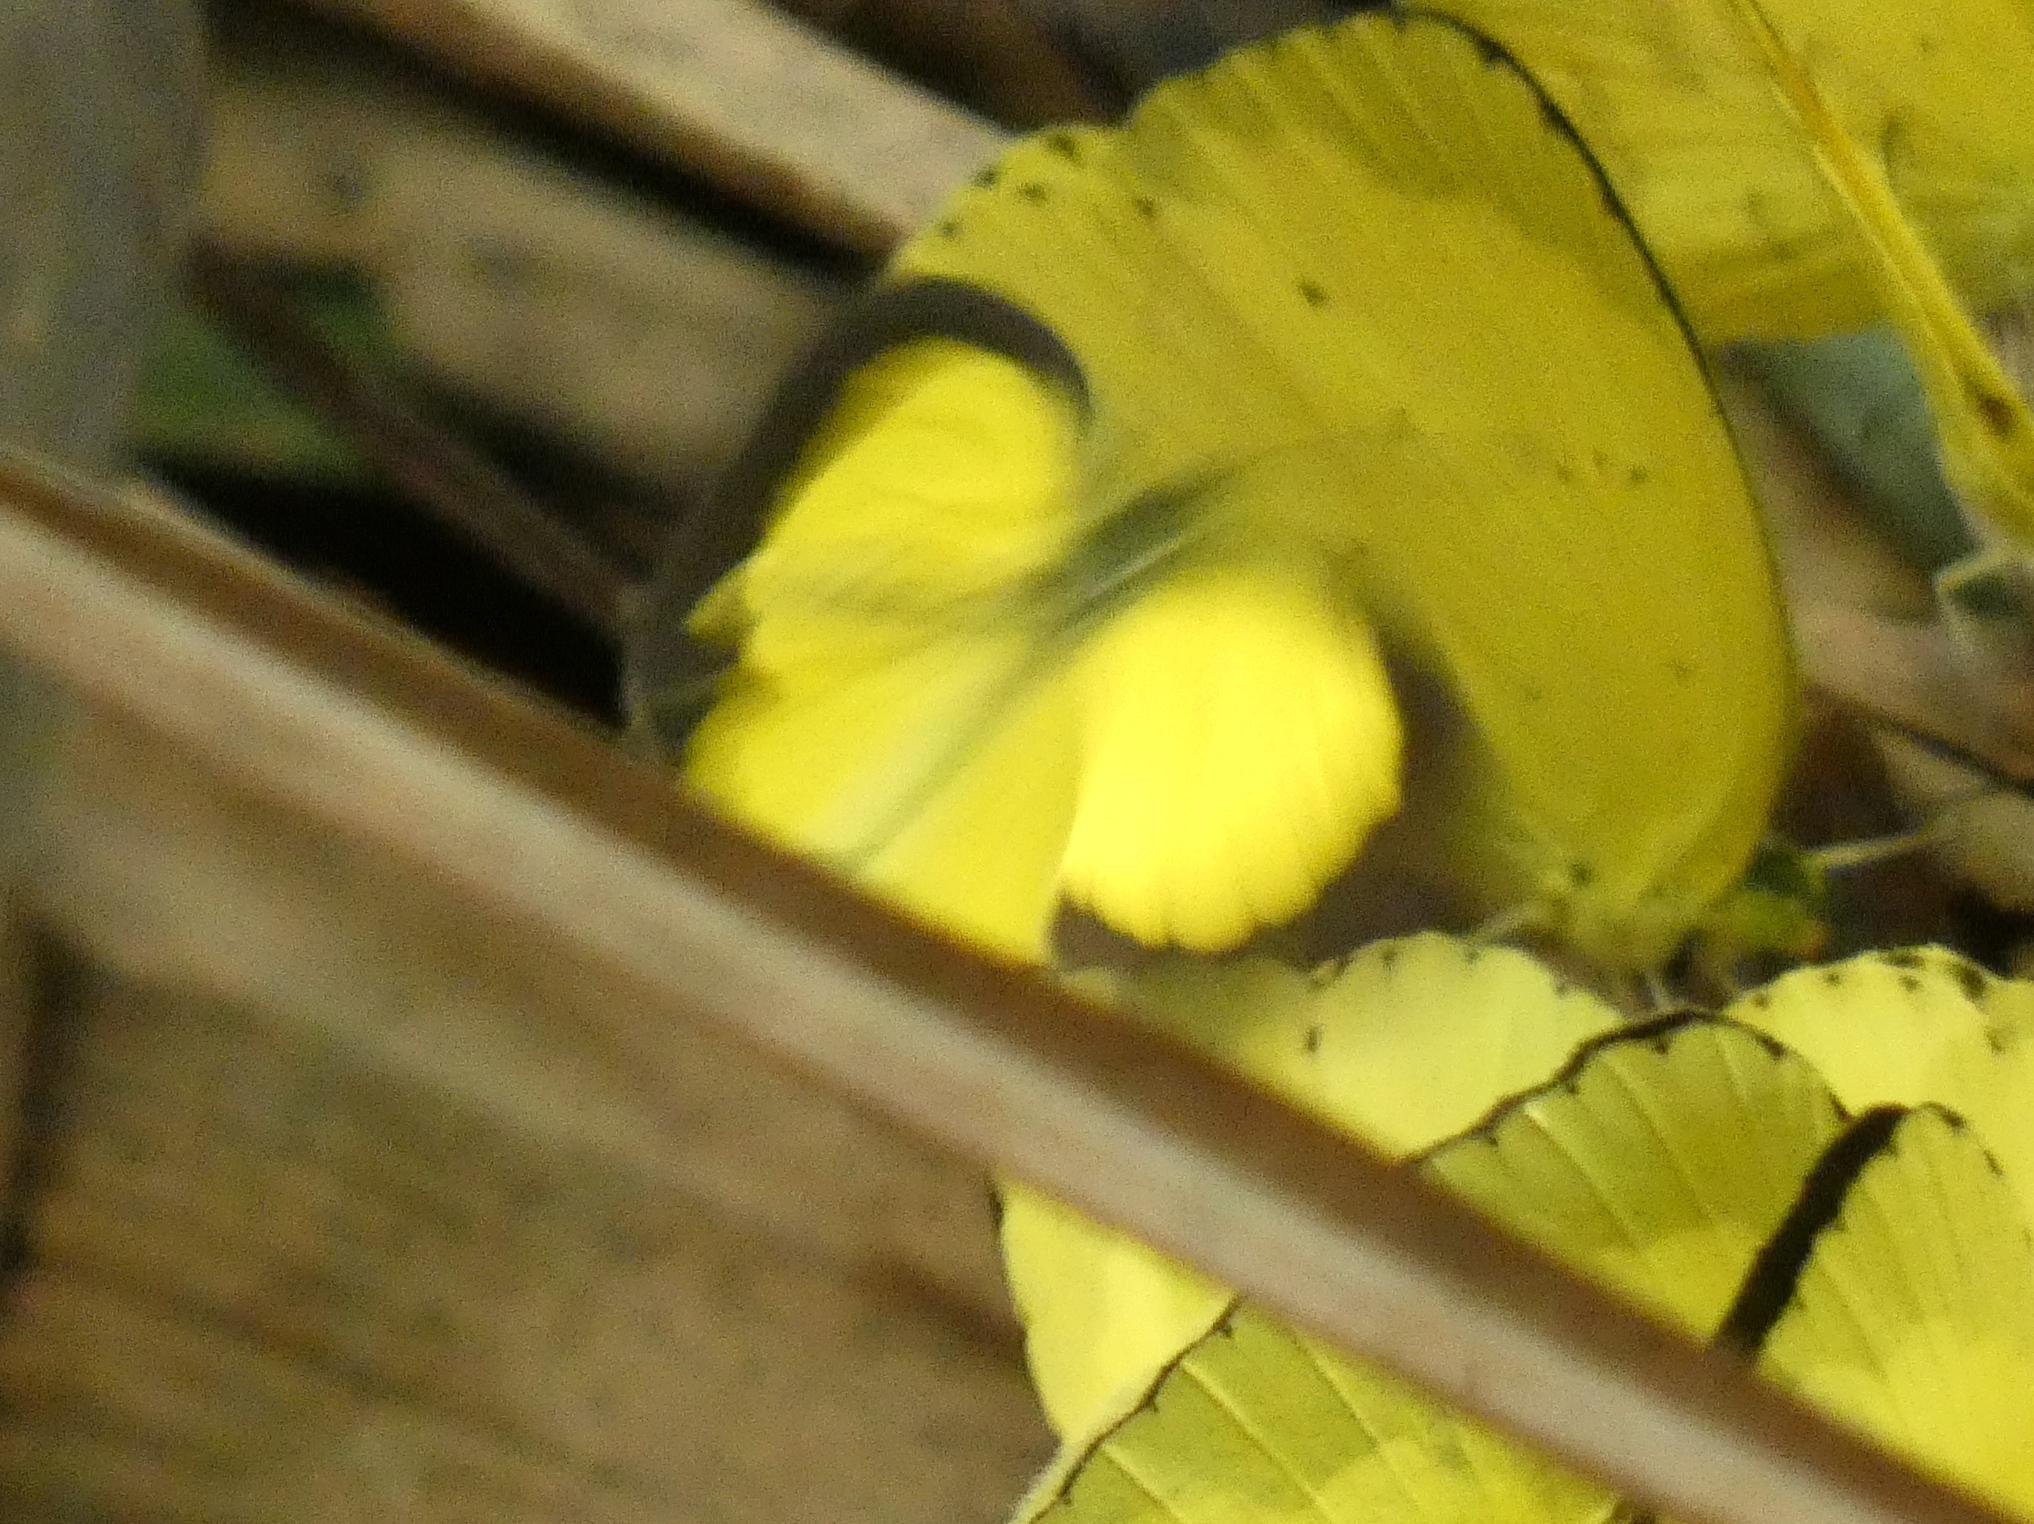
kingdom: Animalia
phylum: Arthropoda
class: Insecta
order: Lepidoptera
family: Pieridae
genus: Eurema
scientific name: Eurema regularis
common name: Regular grass yellow
